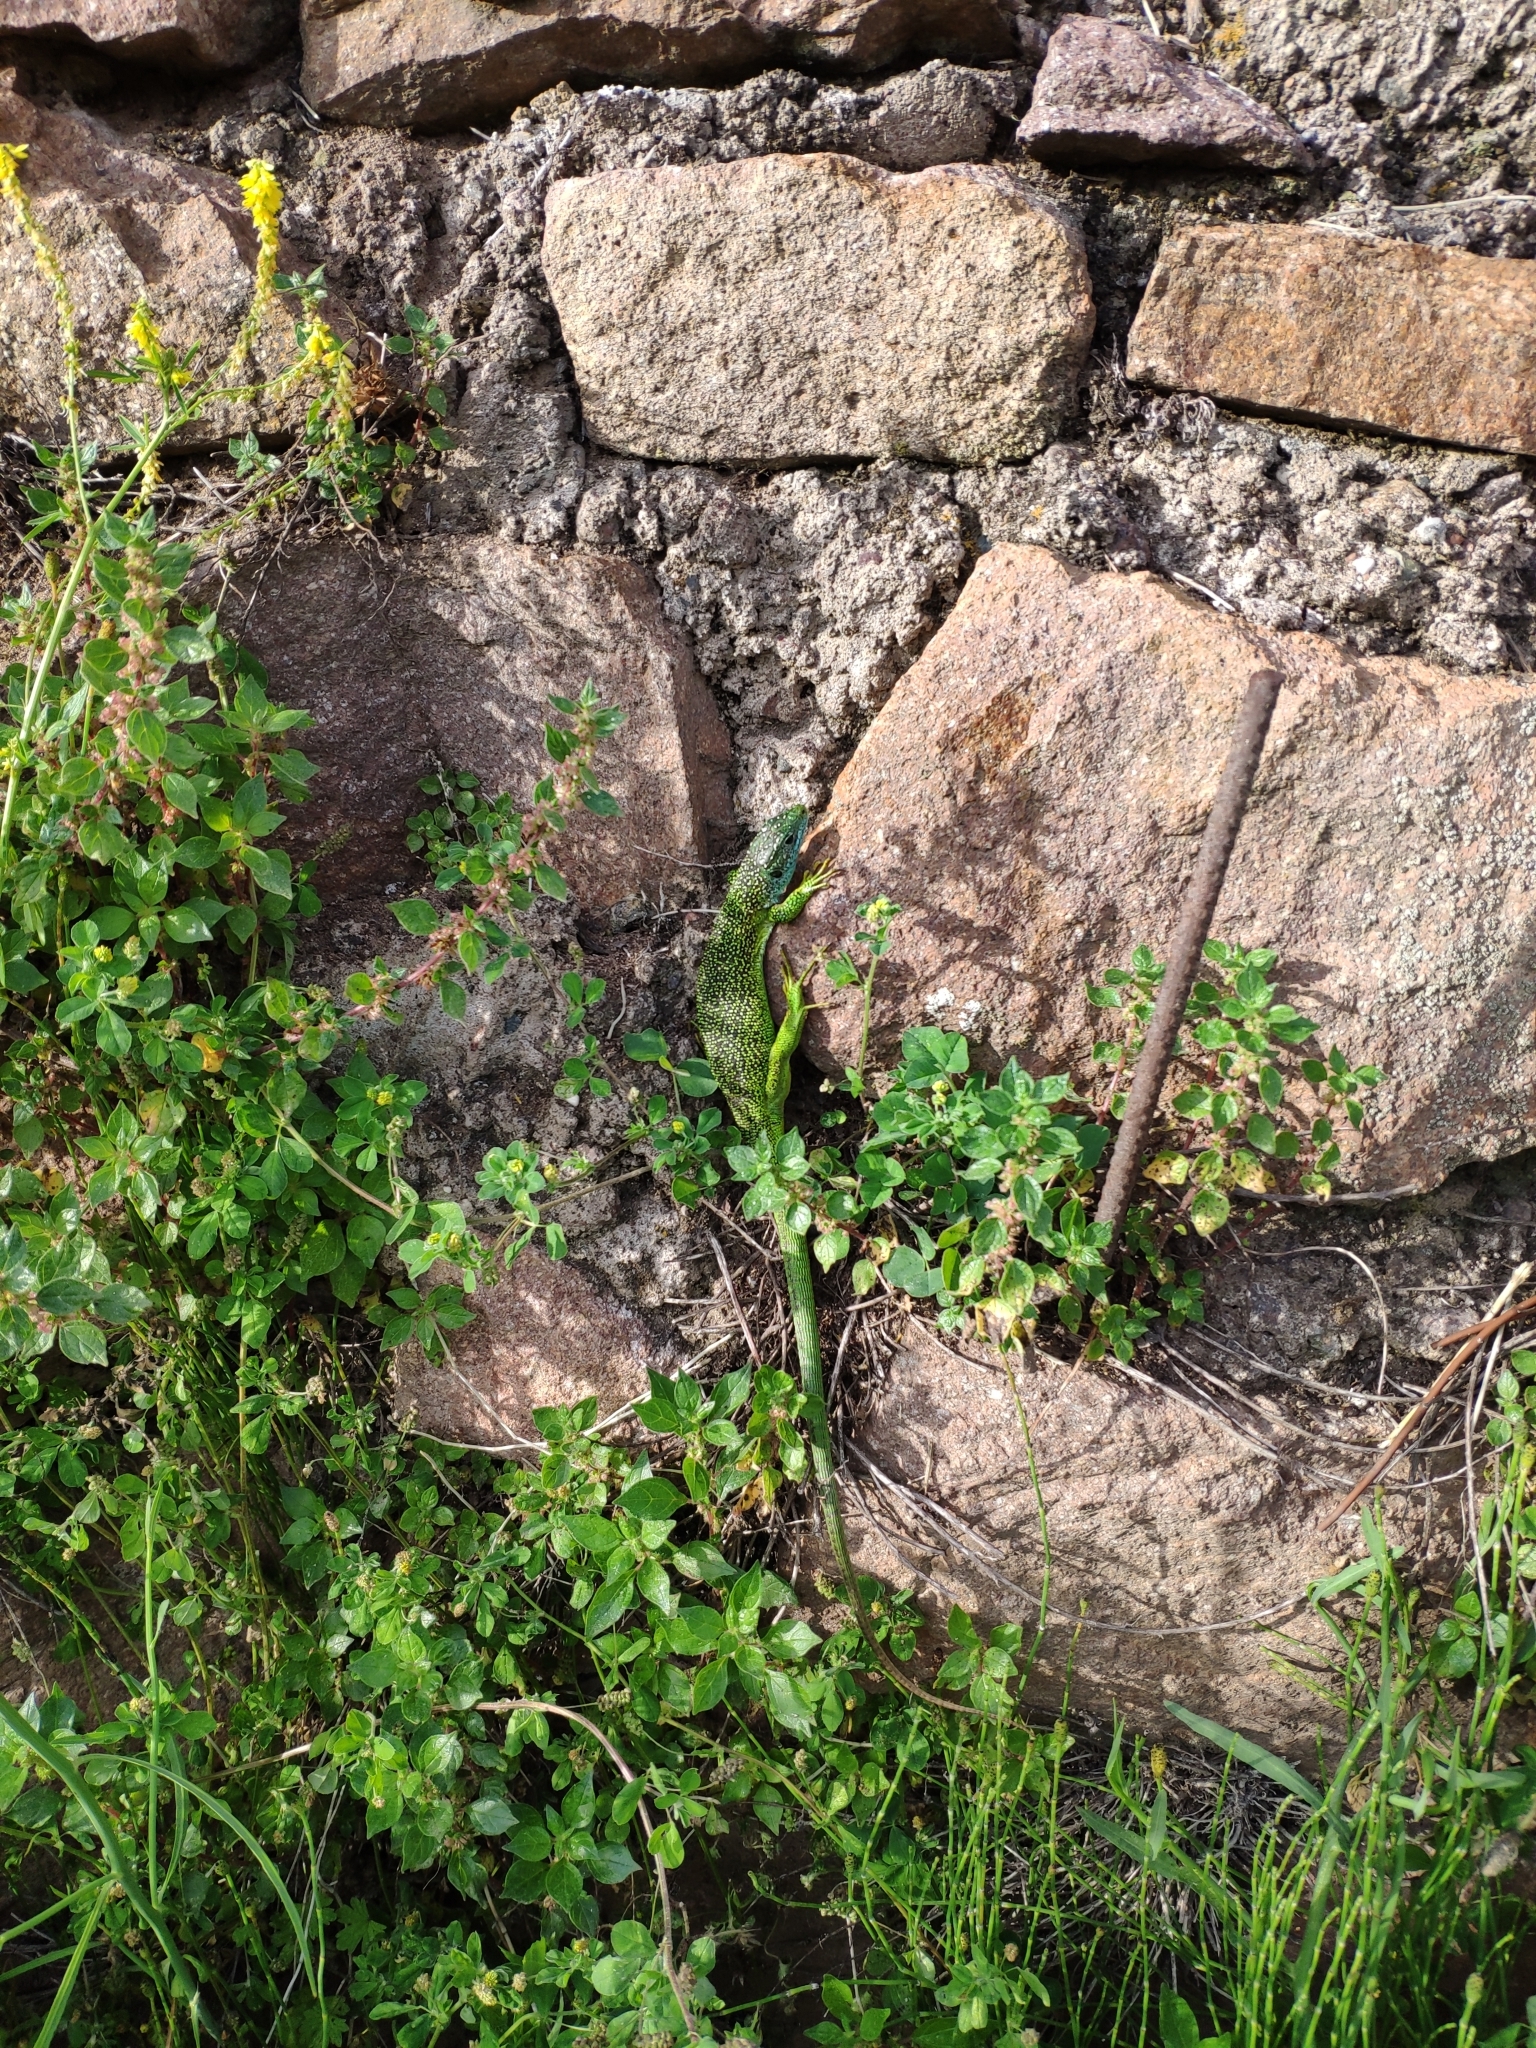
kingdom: Animalia
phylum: Chordata
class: Squamata
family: Lacertidae
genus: Lacerta
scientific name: Lacerta bilineata
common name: Western green lizard
